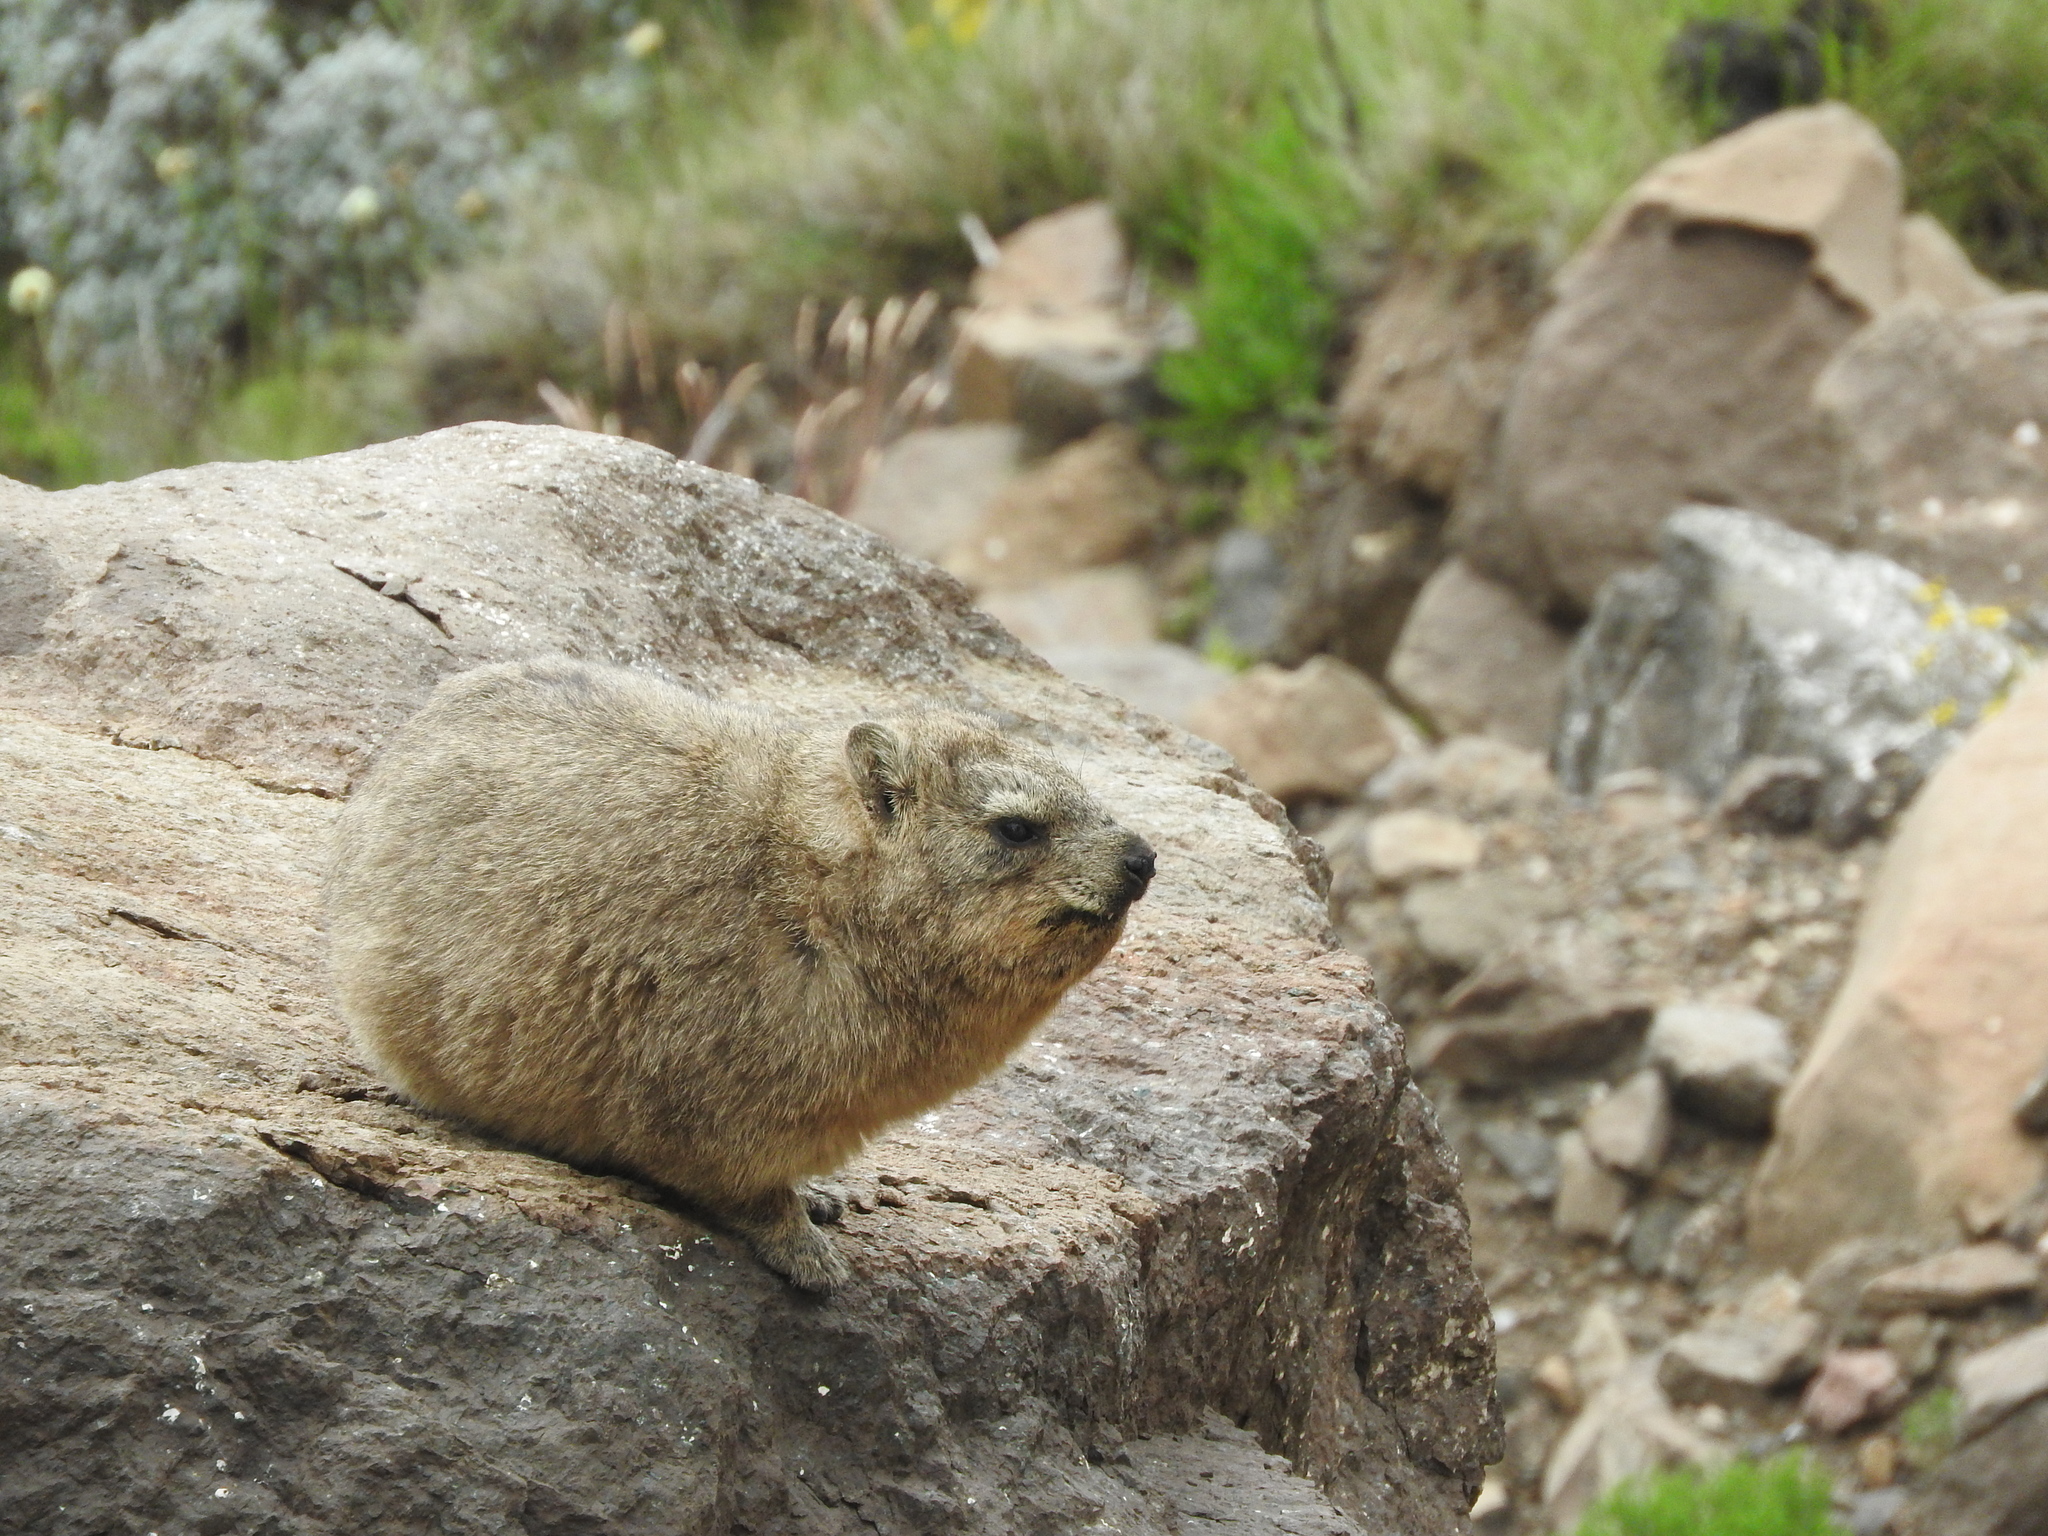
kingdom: Animalia
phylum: Chordata
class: Mammalia
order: Hyracoidea
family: Procaviidae
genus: Procavia
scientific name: Procavia capensis
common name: Rock hyrax
